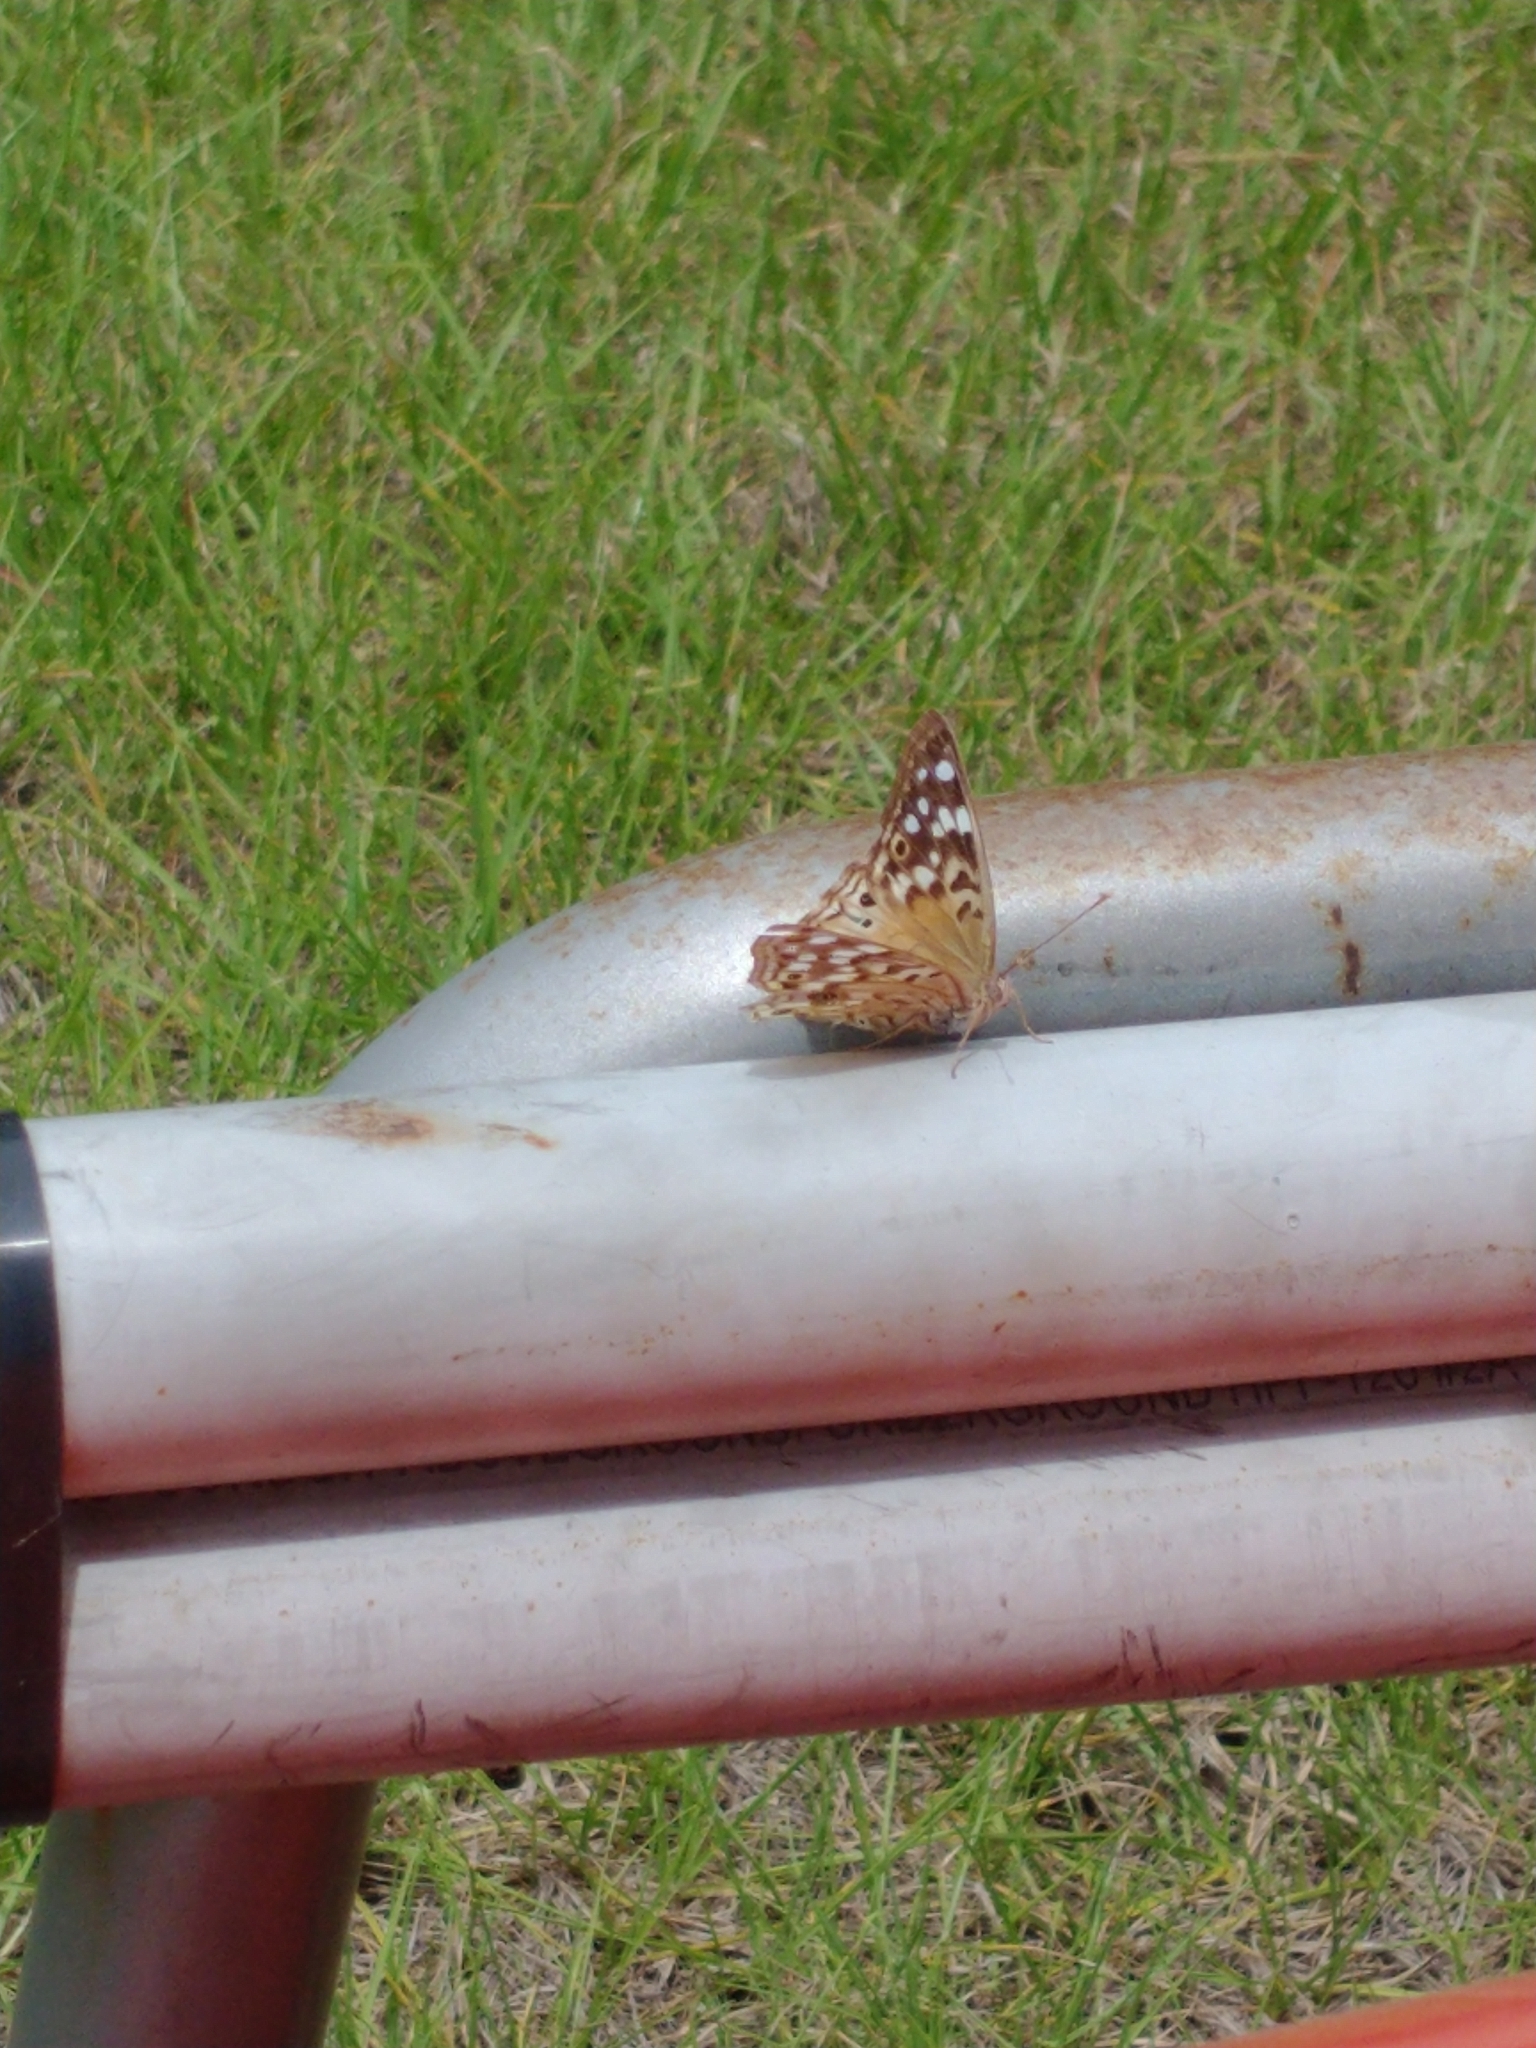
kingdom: Animalia
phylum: Arthropoda
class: Insecta
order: Lepidoptera
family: Nymphalidae
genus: Asterocampa
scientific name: Asterocampa celtis
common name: Hackberry emperor
